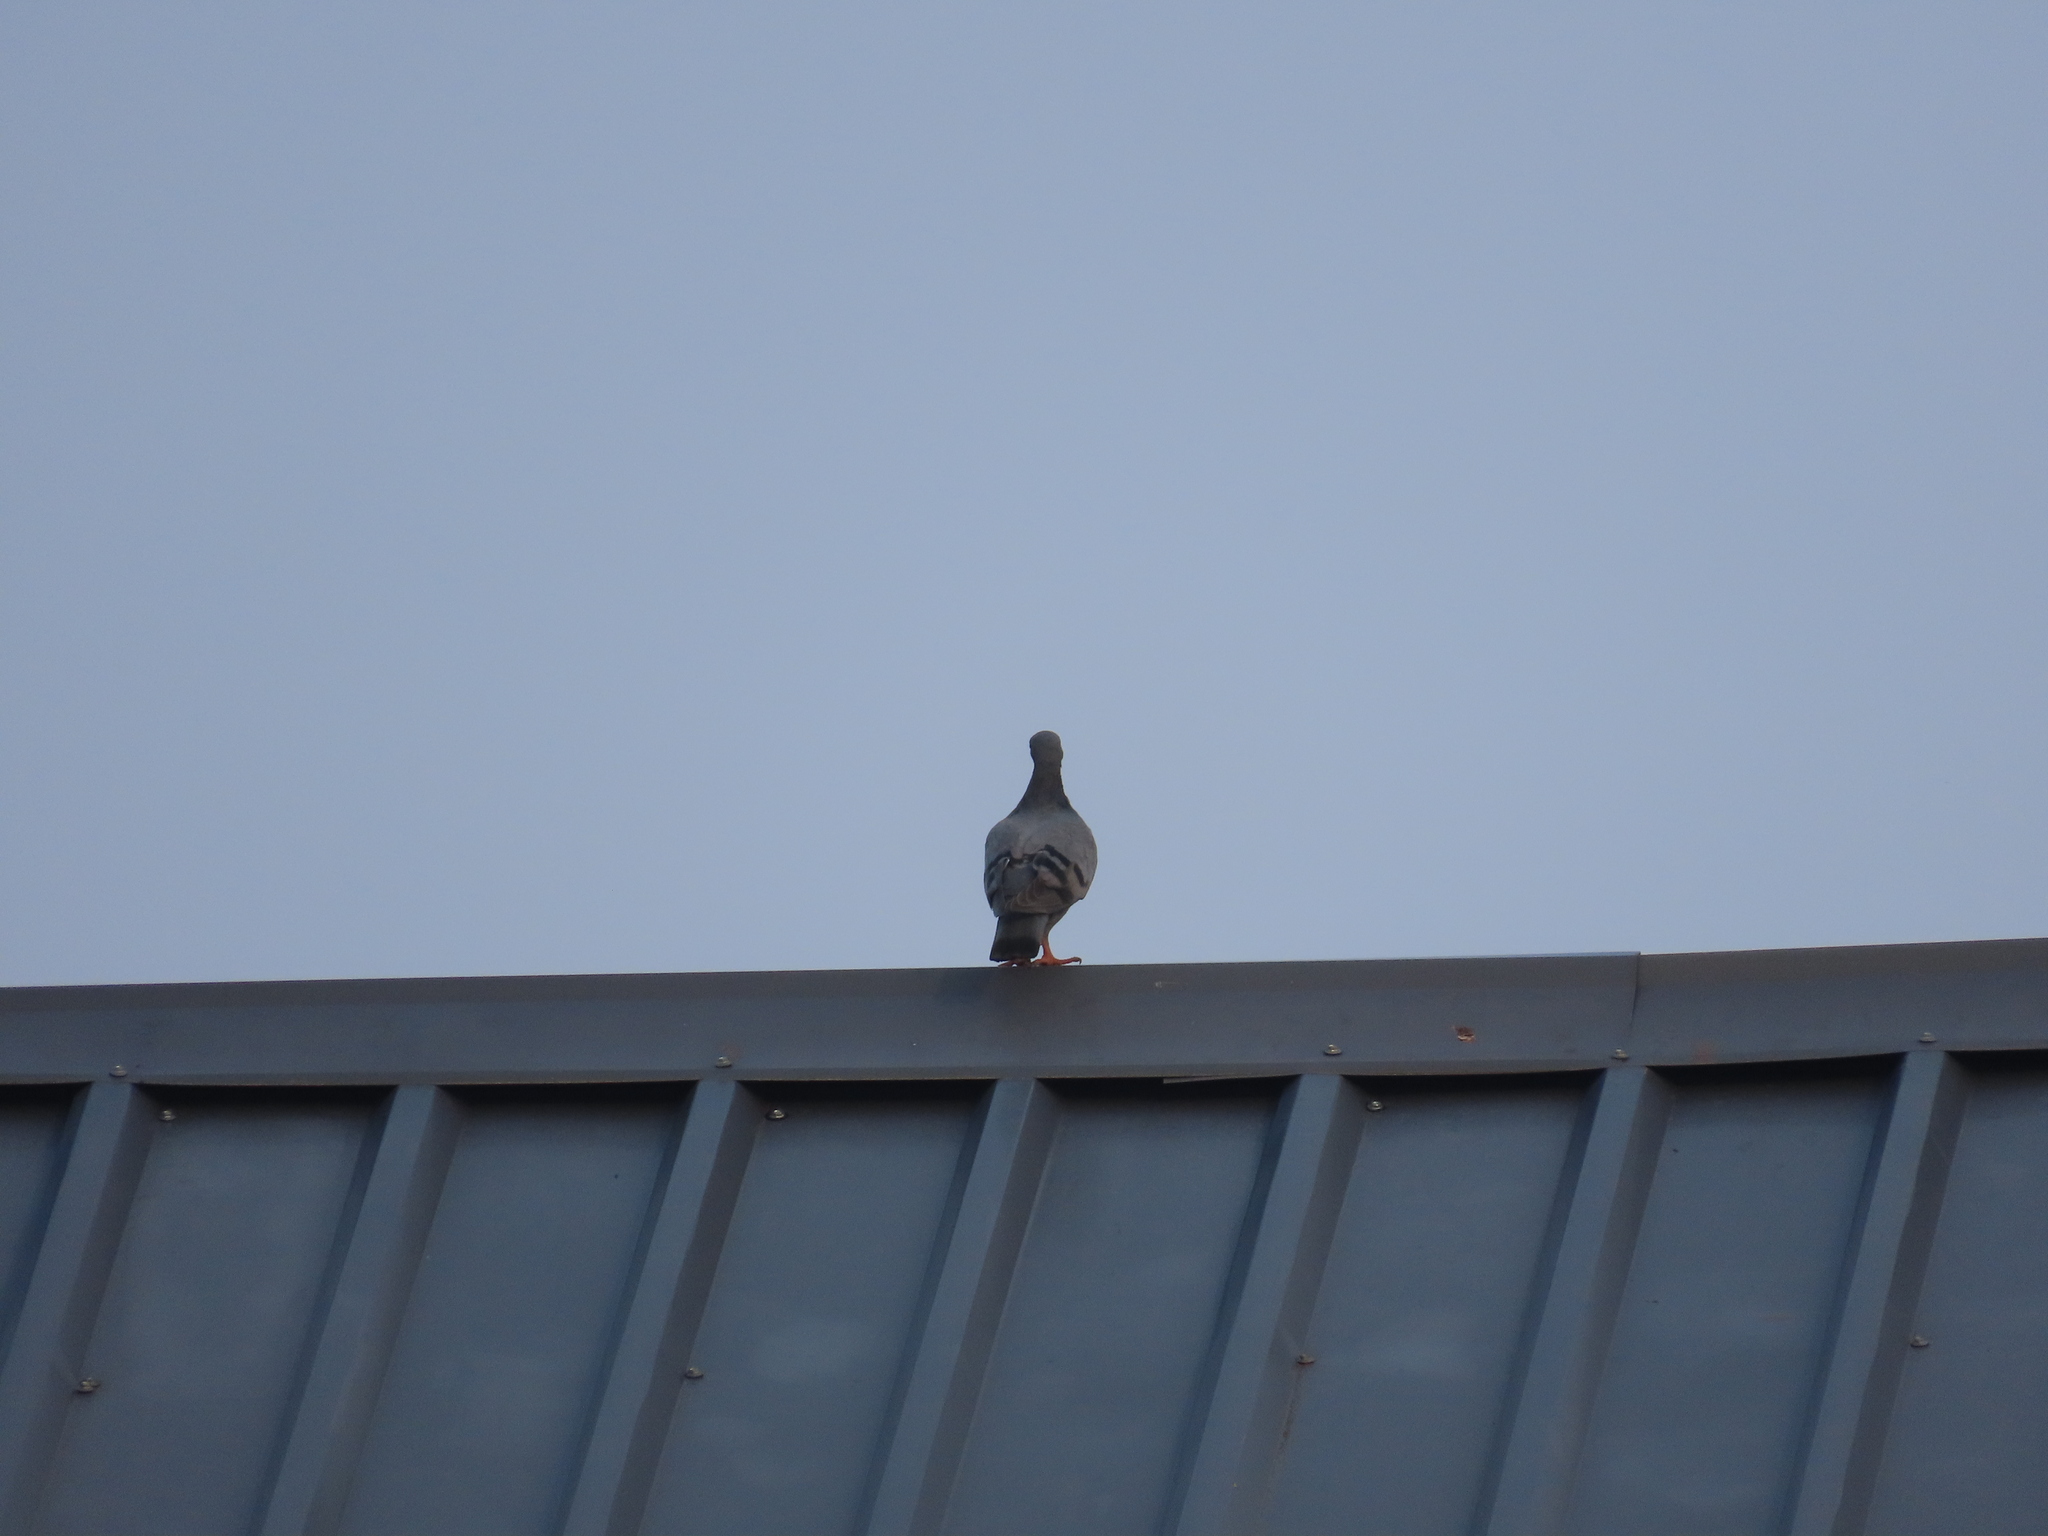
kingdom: Animalia
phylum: Chordata
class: Aves
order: Columbiformes
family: Columbidae
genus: Columba
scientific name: Columba livia
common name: Rock pigeon
